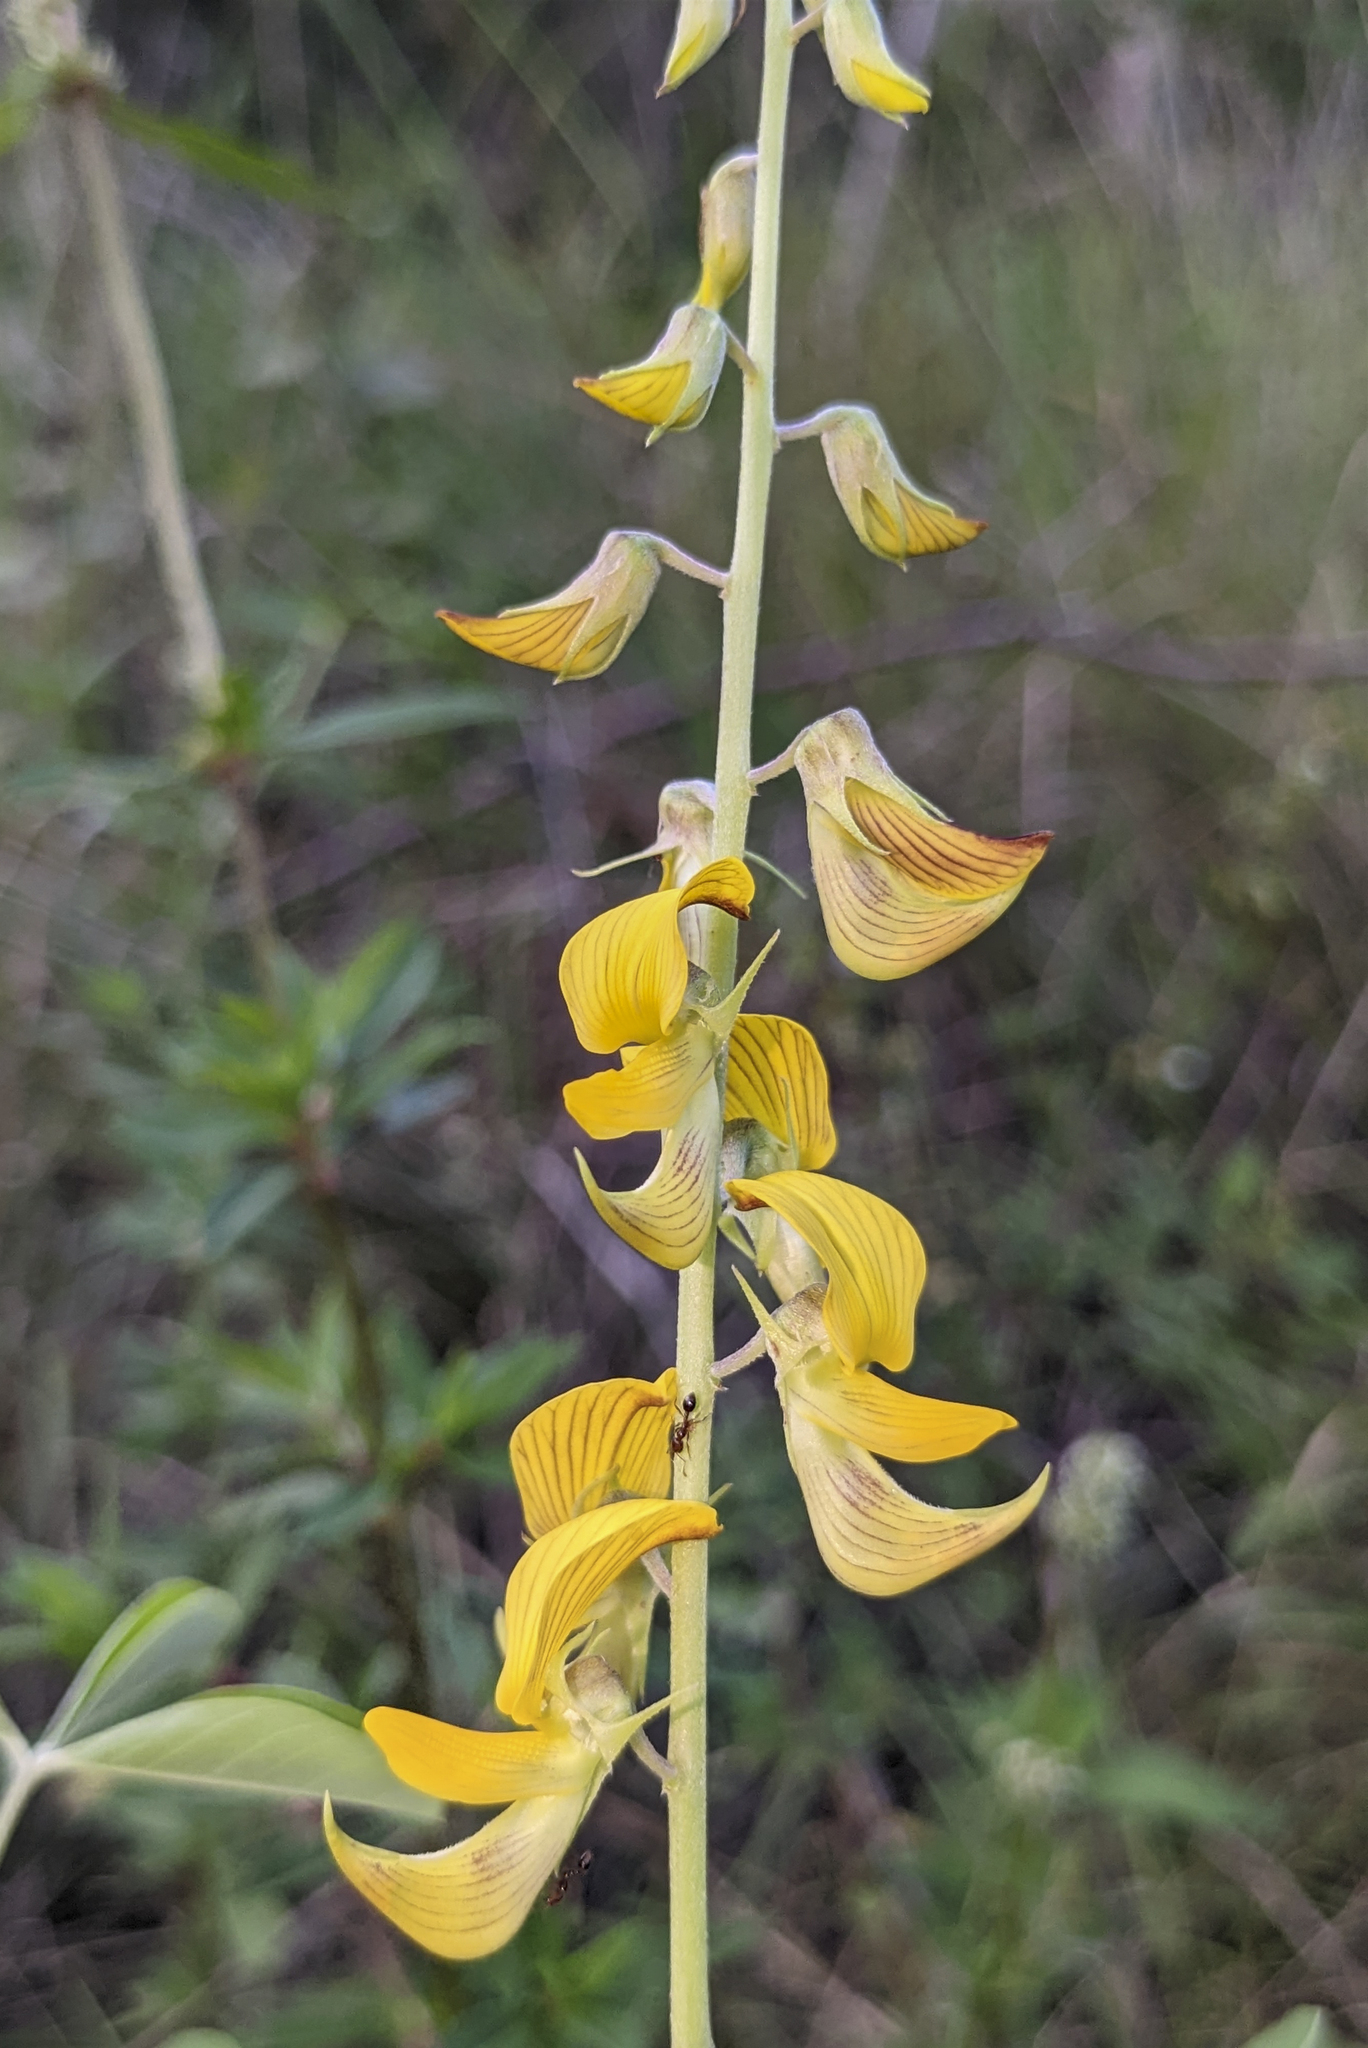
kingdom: Plantae
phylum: Tracheophyta
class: Magnoliopsida
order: Fabales
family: Fabaceae
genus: Crotalaria
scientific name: Crotalaria pallida
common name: Smooth rattlebox
